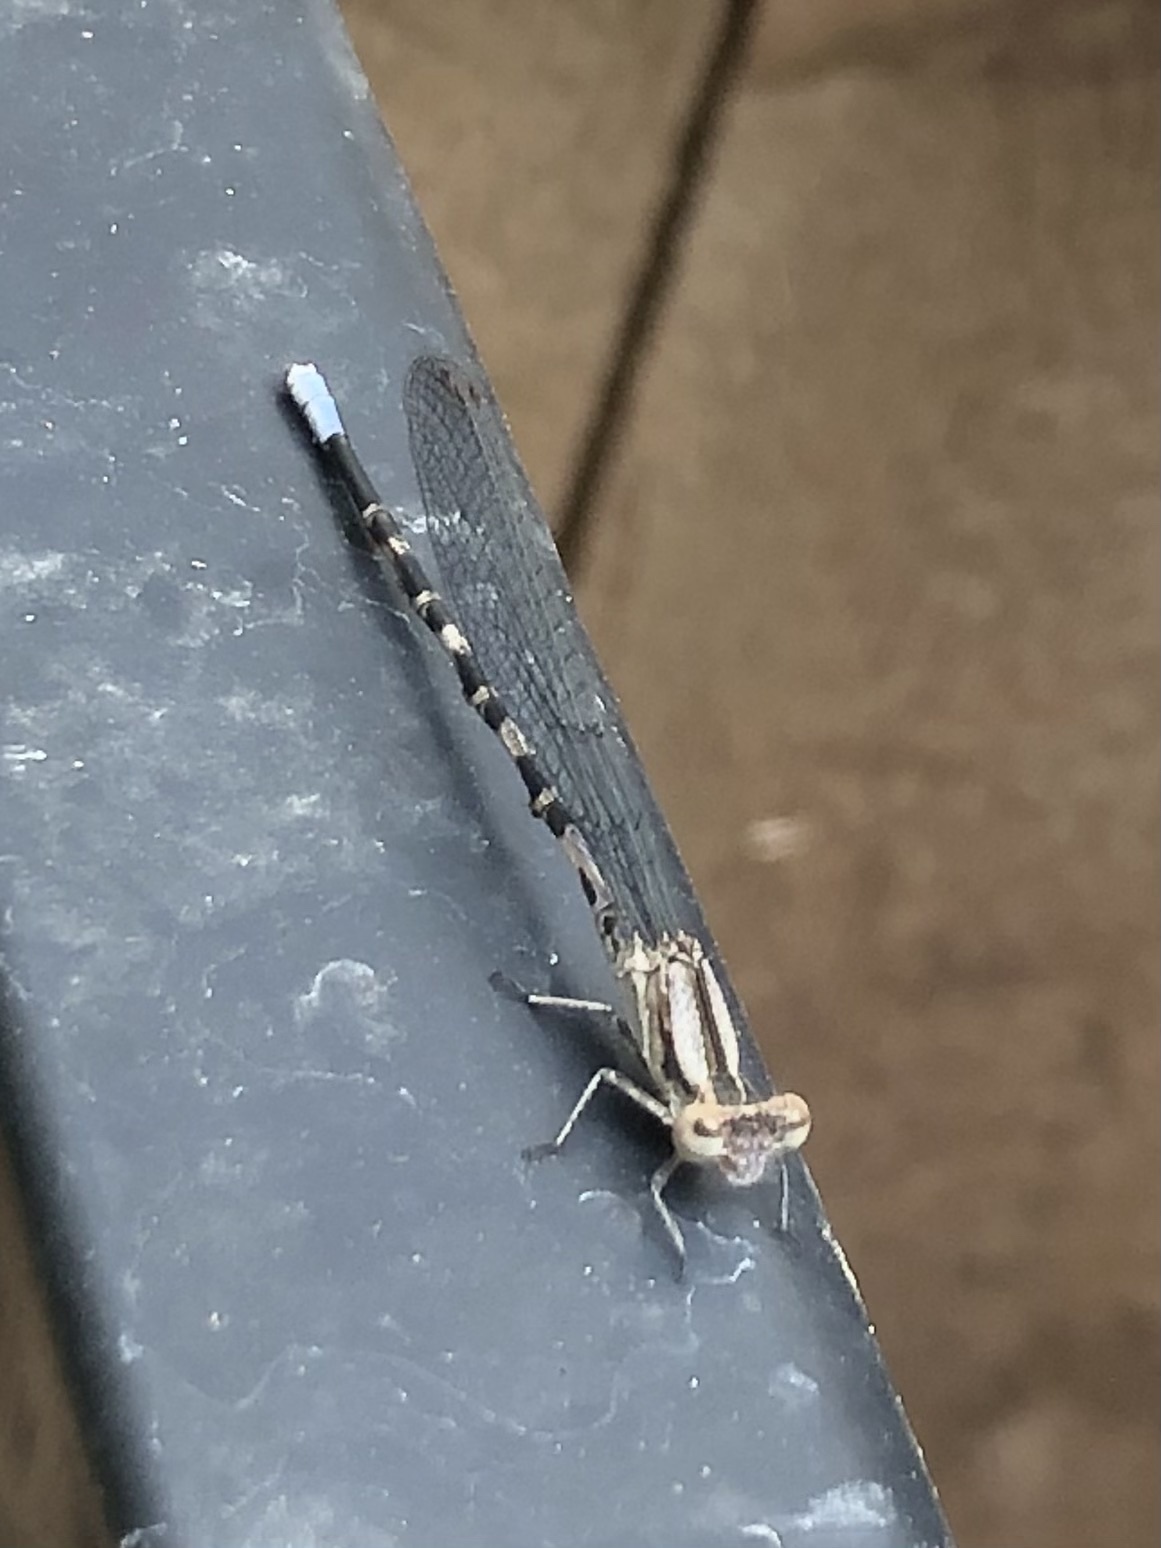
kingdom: Animalia
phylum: Arthropoda
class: Insecta
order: Odonata
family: Coenagrionidae
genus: Argia
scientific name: Argia immunda
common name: Kiowa dancer
